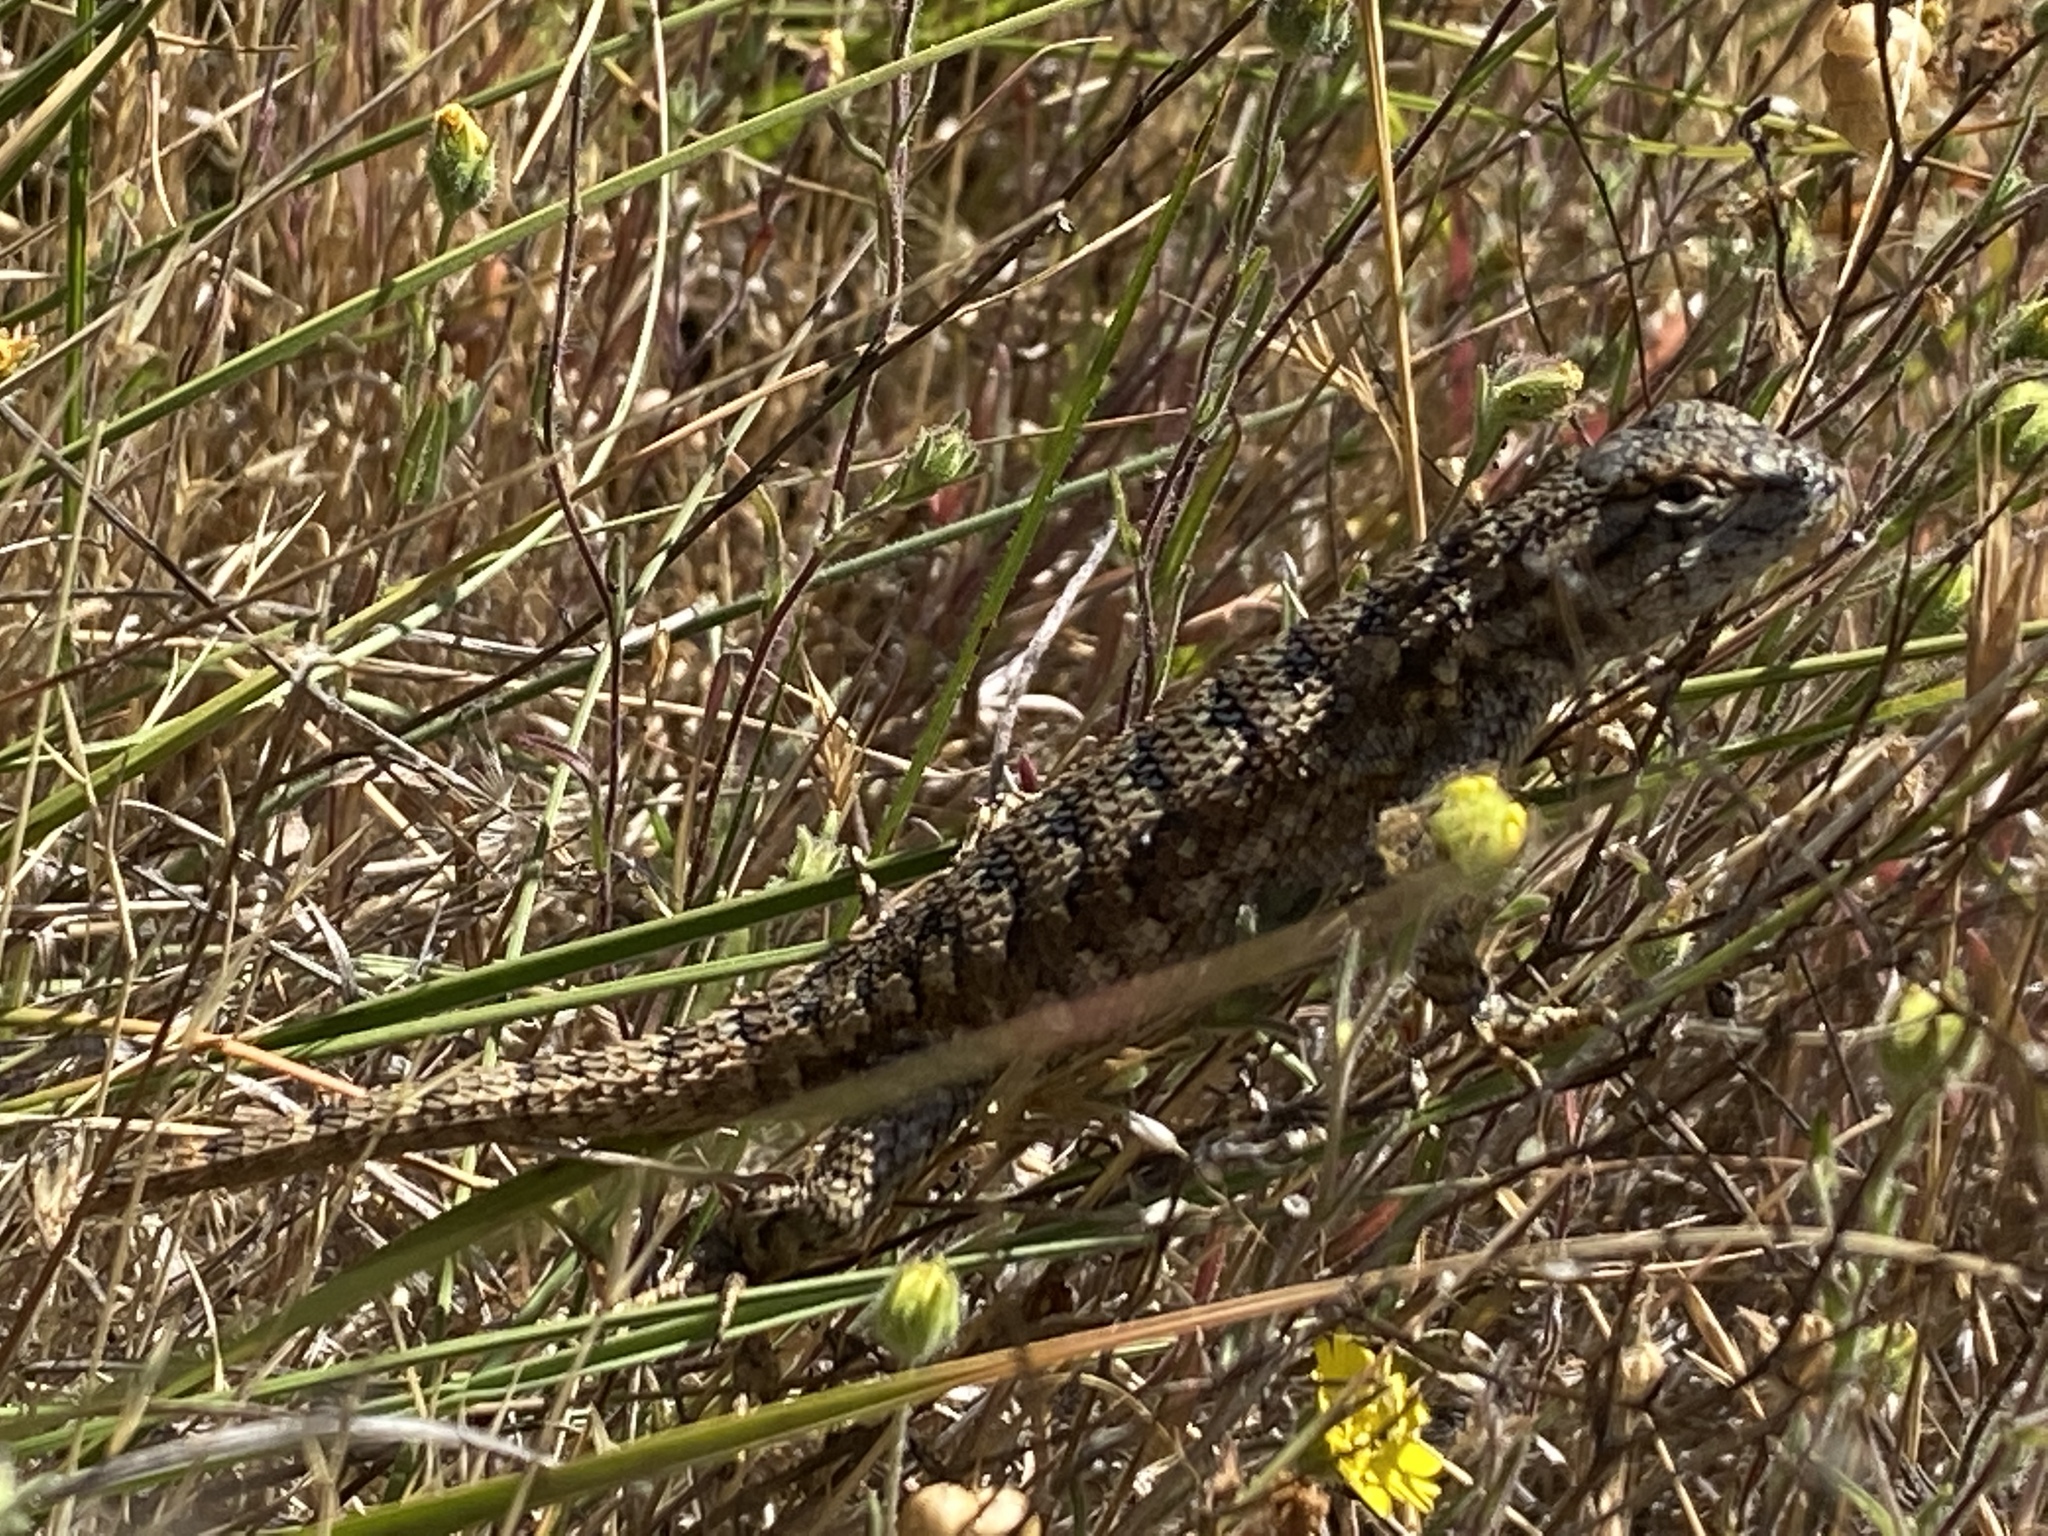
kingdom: Animalia
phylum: Chordata
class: Squamata
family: Phrynosomatidae
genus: Sceloporus
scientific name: Sceloporus occidentalis
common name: Western fence lizard
